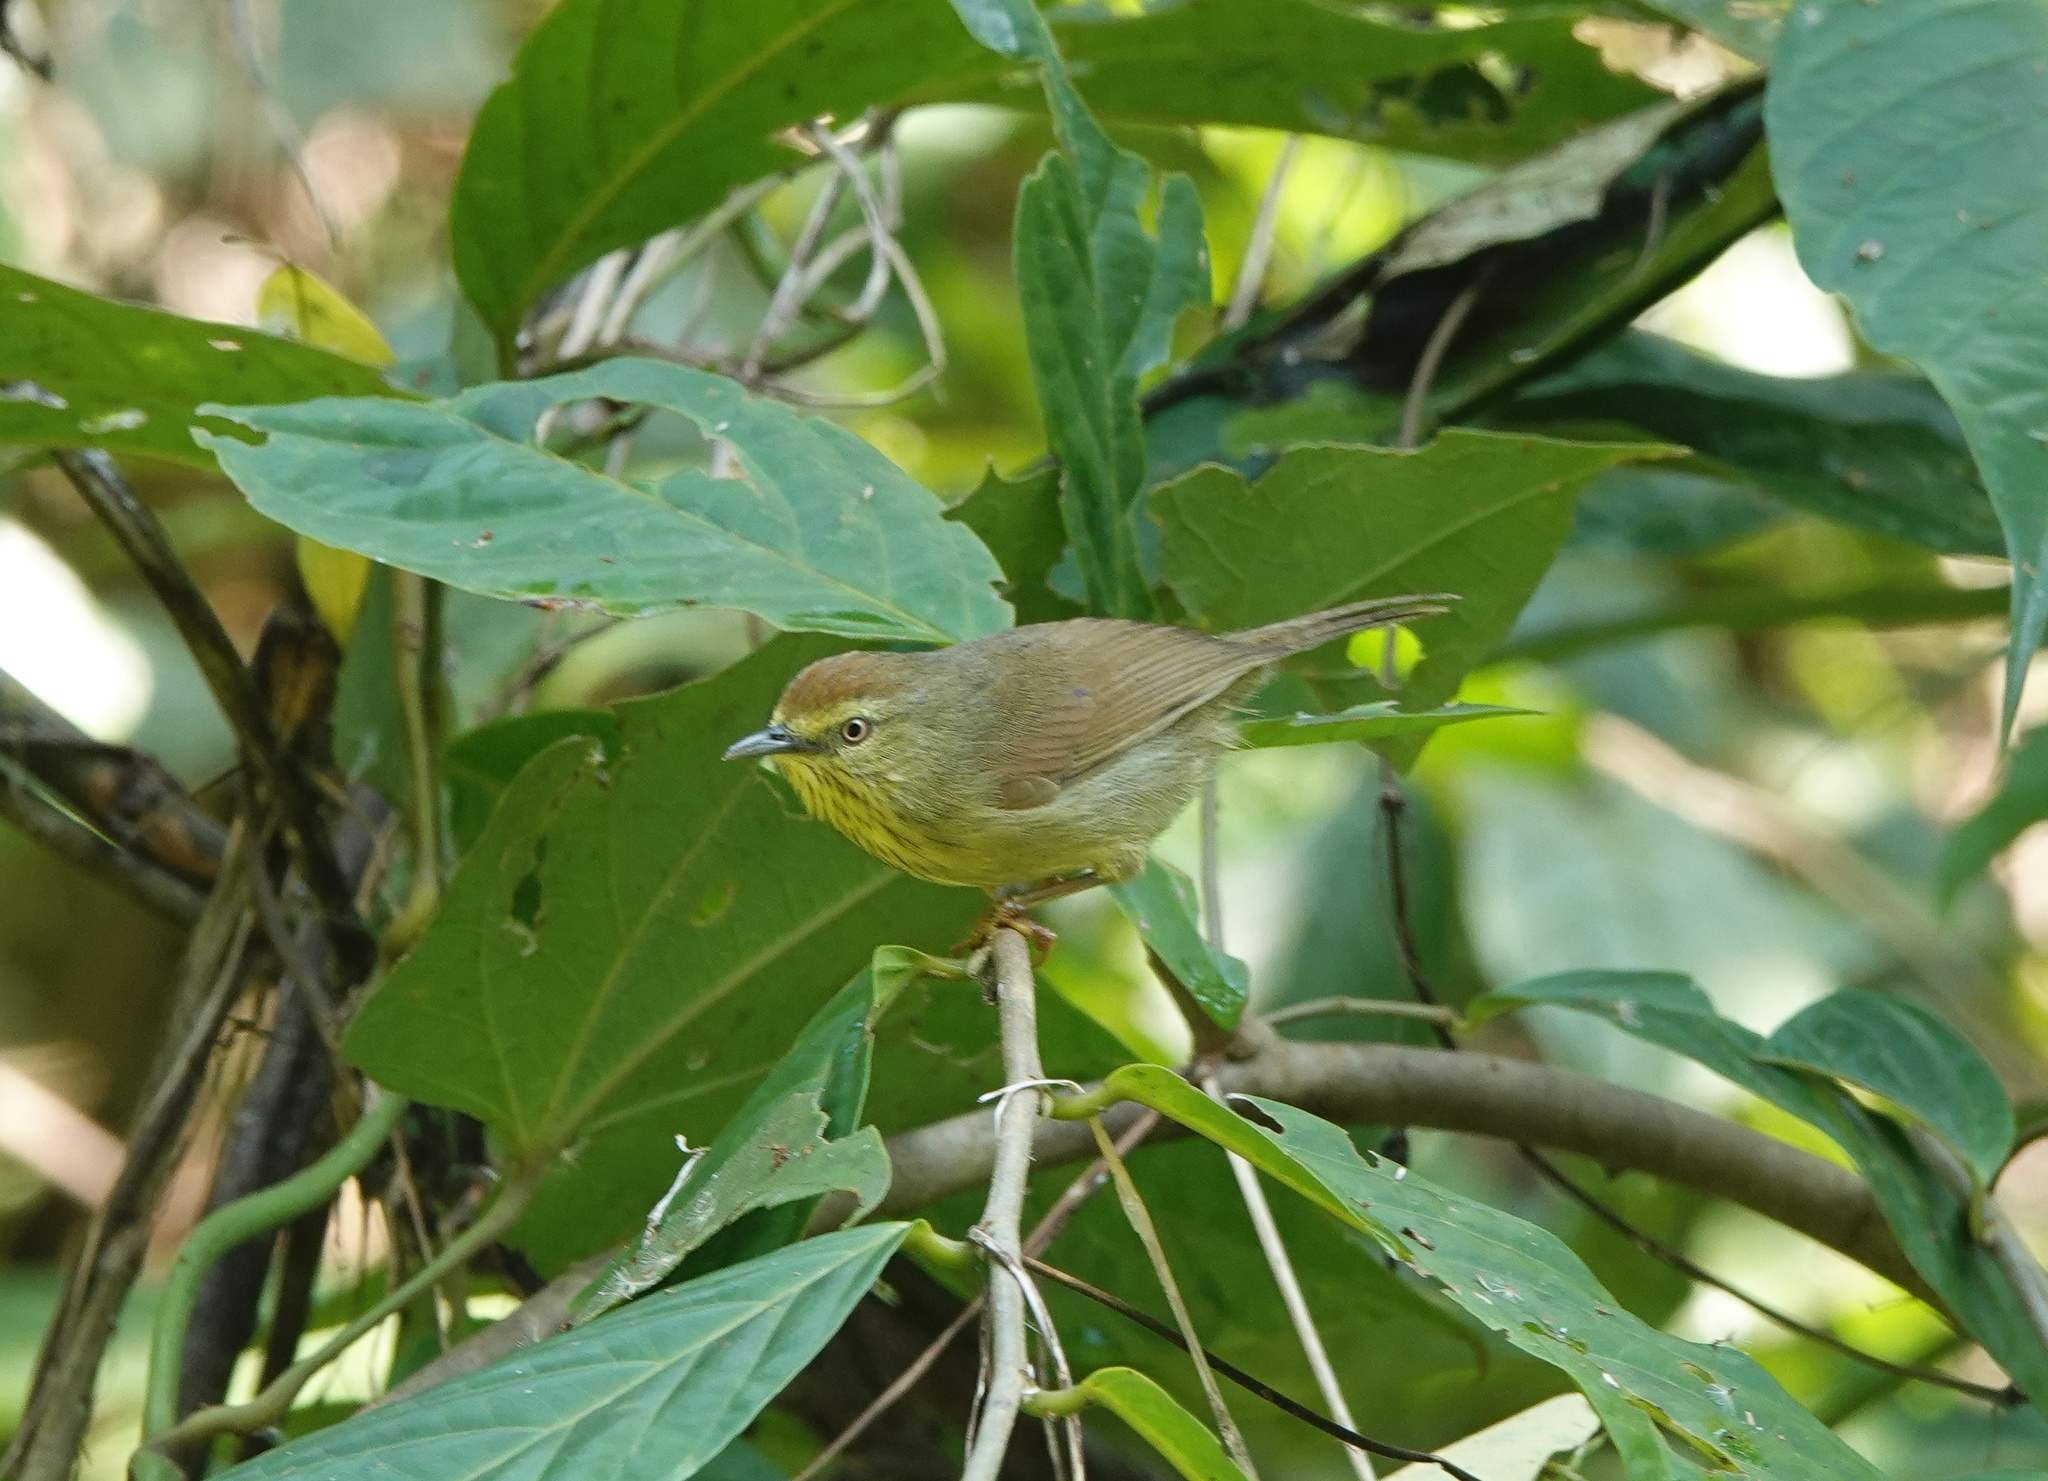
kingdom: Animalia
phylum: Chordata
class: Aves
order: Passeriformes
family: Timaliidae
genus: Macronus
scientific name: Macronus gularis
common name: Striped tit-babbler
